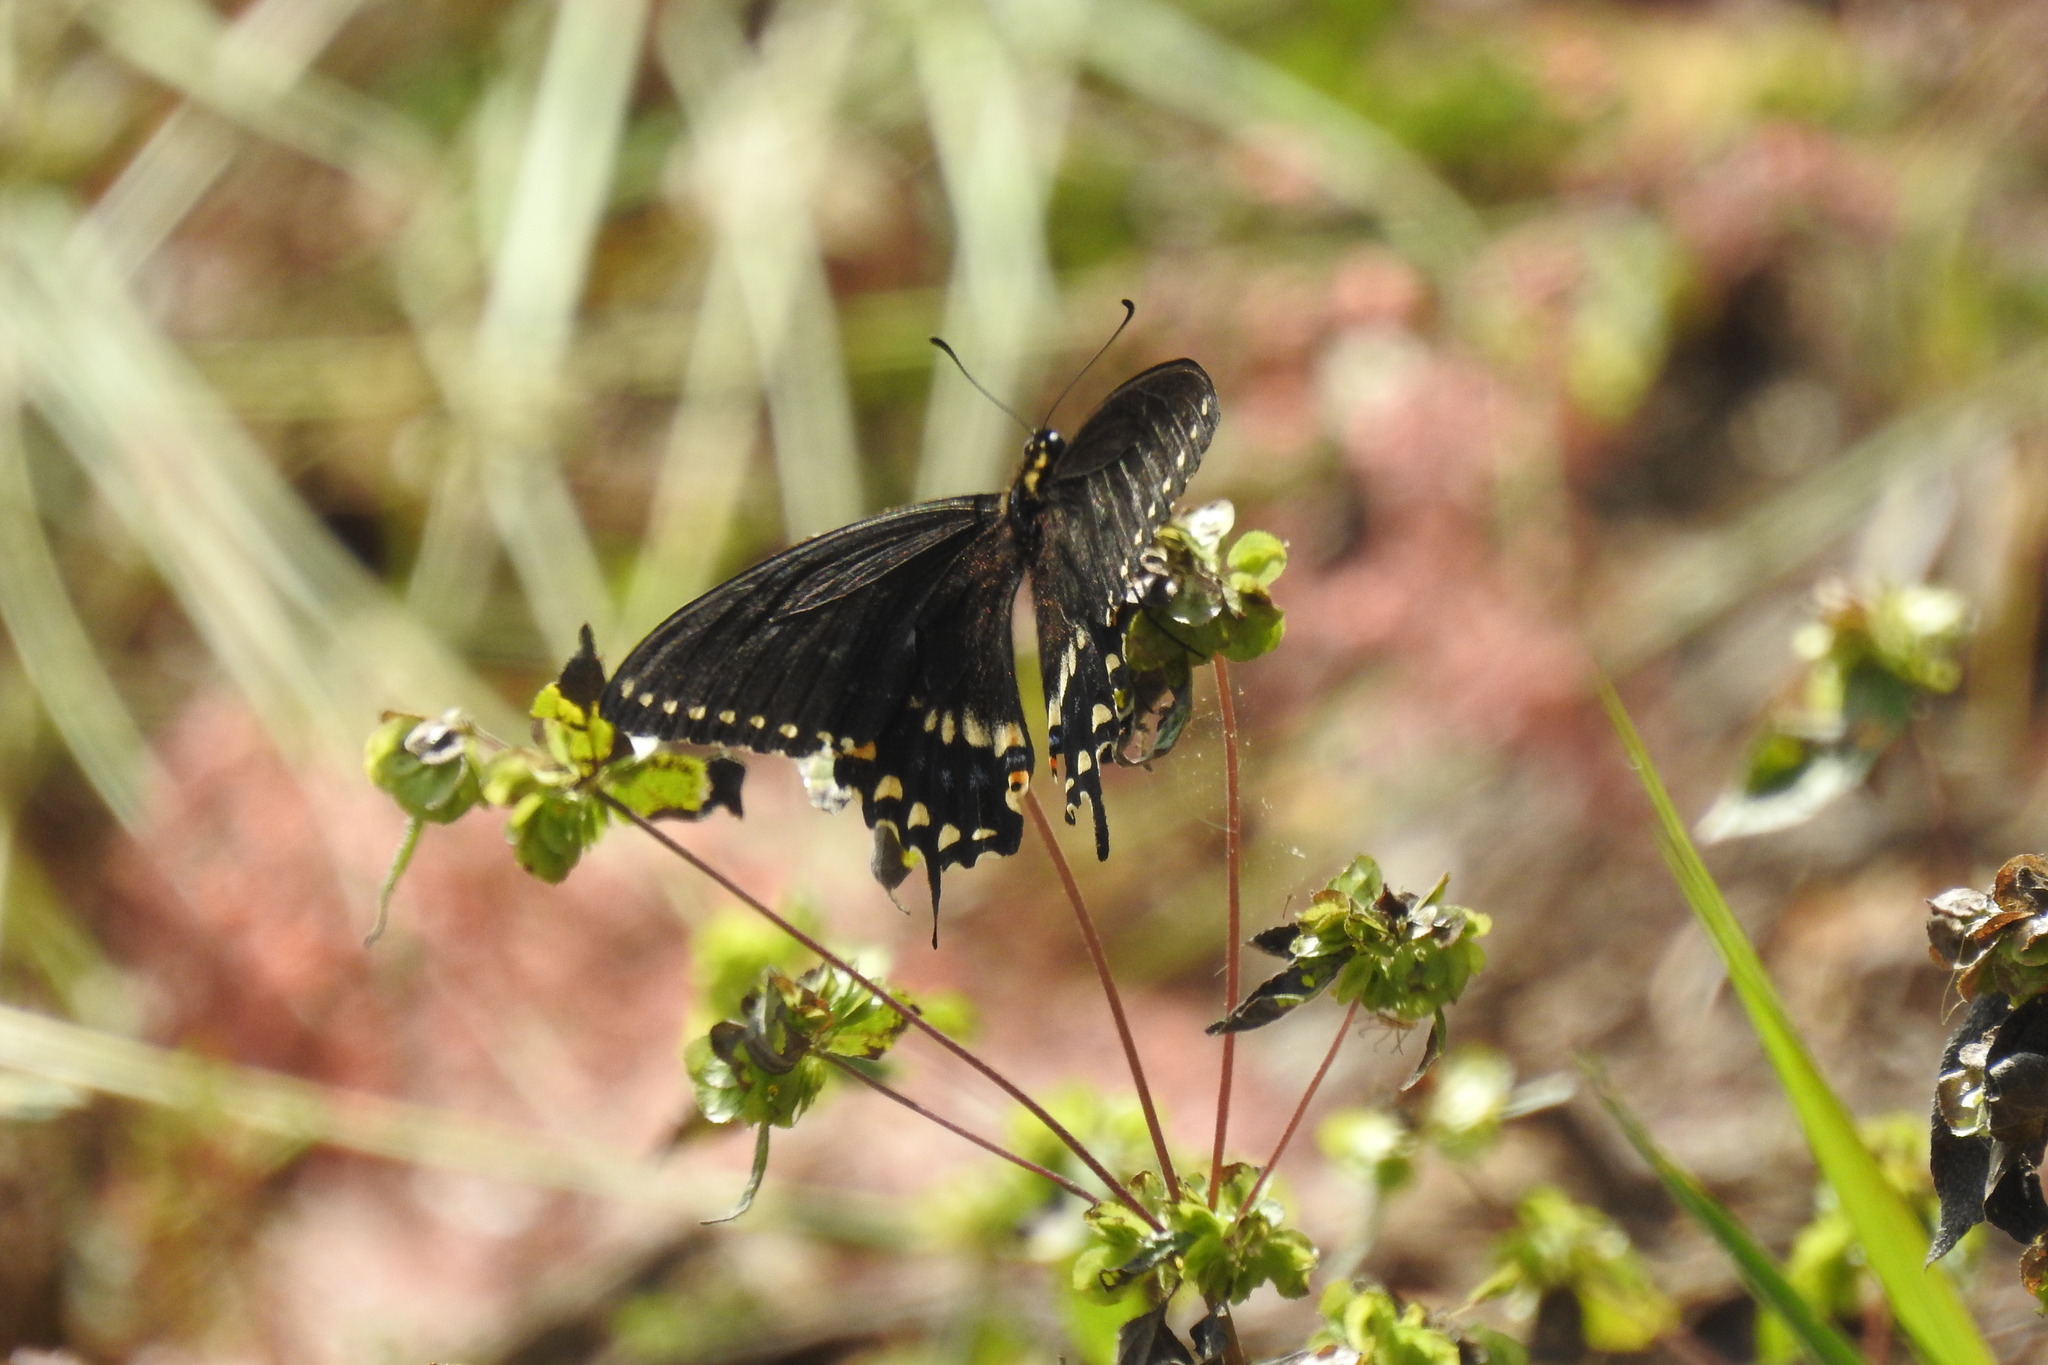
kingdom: Animalia
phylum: Arthropoda
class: Insecta
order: Lepidoptera
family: Papilionidae
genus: Papilio
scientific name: Papilio polyxenes
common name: Black swallowtail
